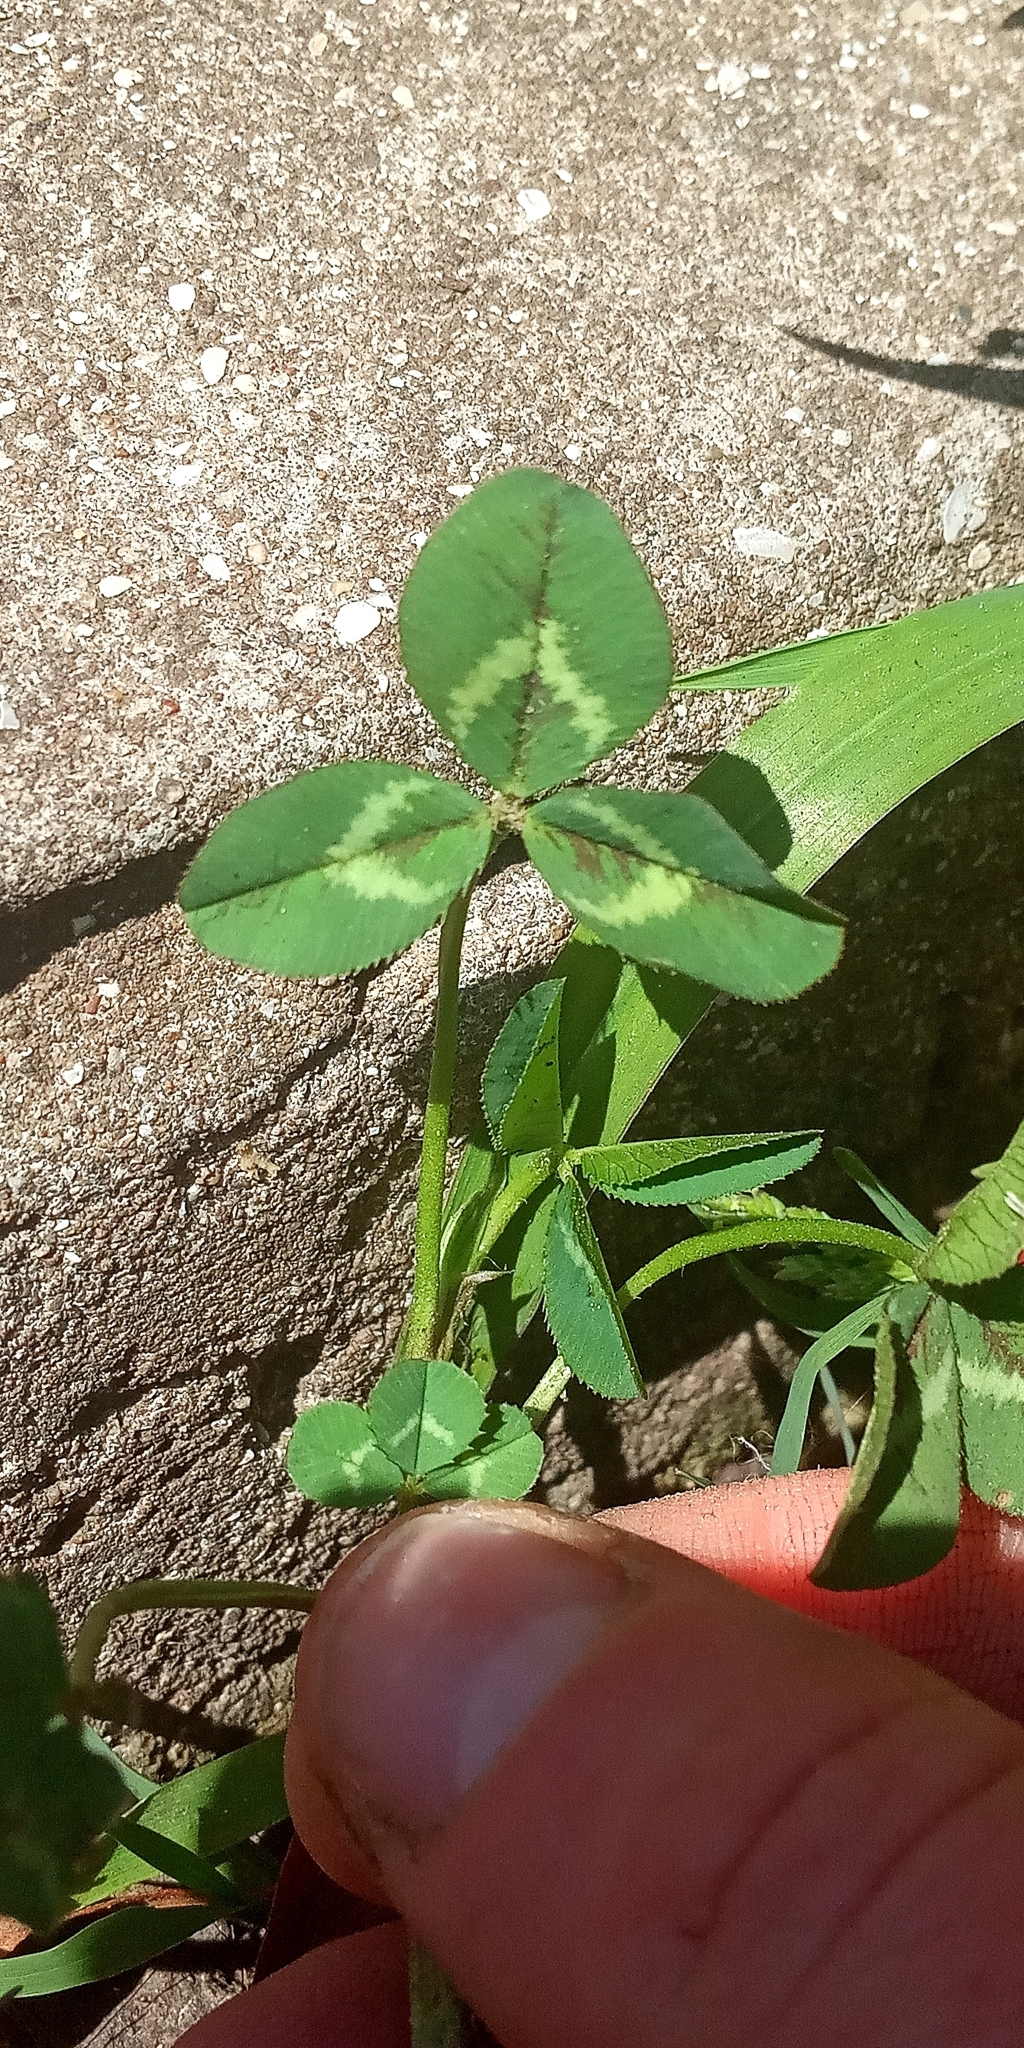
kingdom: Plantae
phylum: Tracheophyta
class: Magnoliopsida
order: Fabales
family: Fabaceae
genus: Trifolium
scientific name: Trifolium repens
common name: White clover
